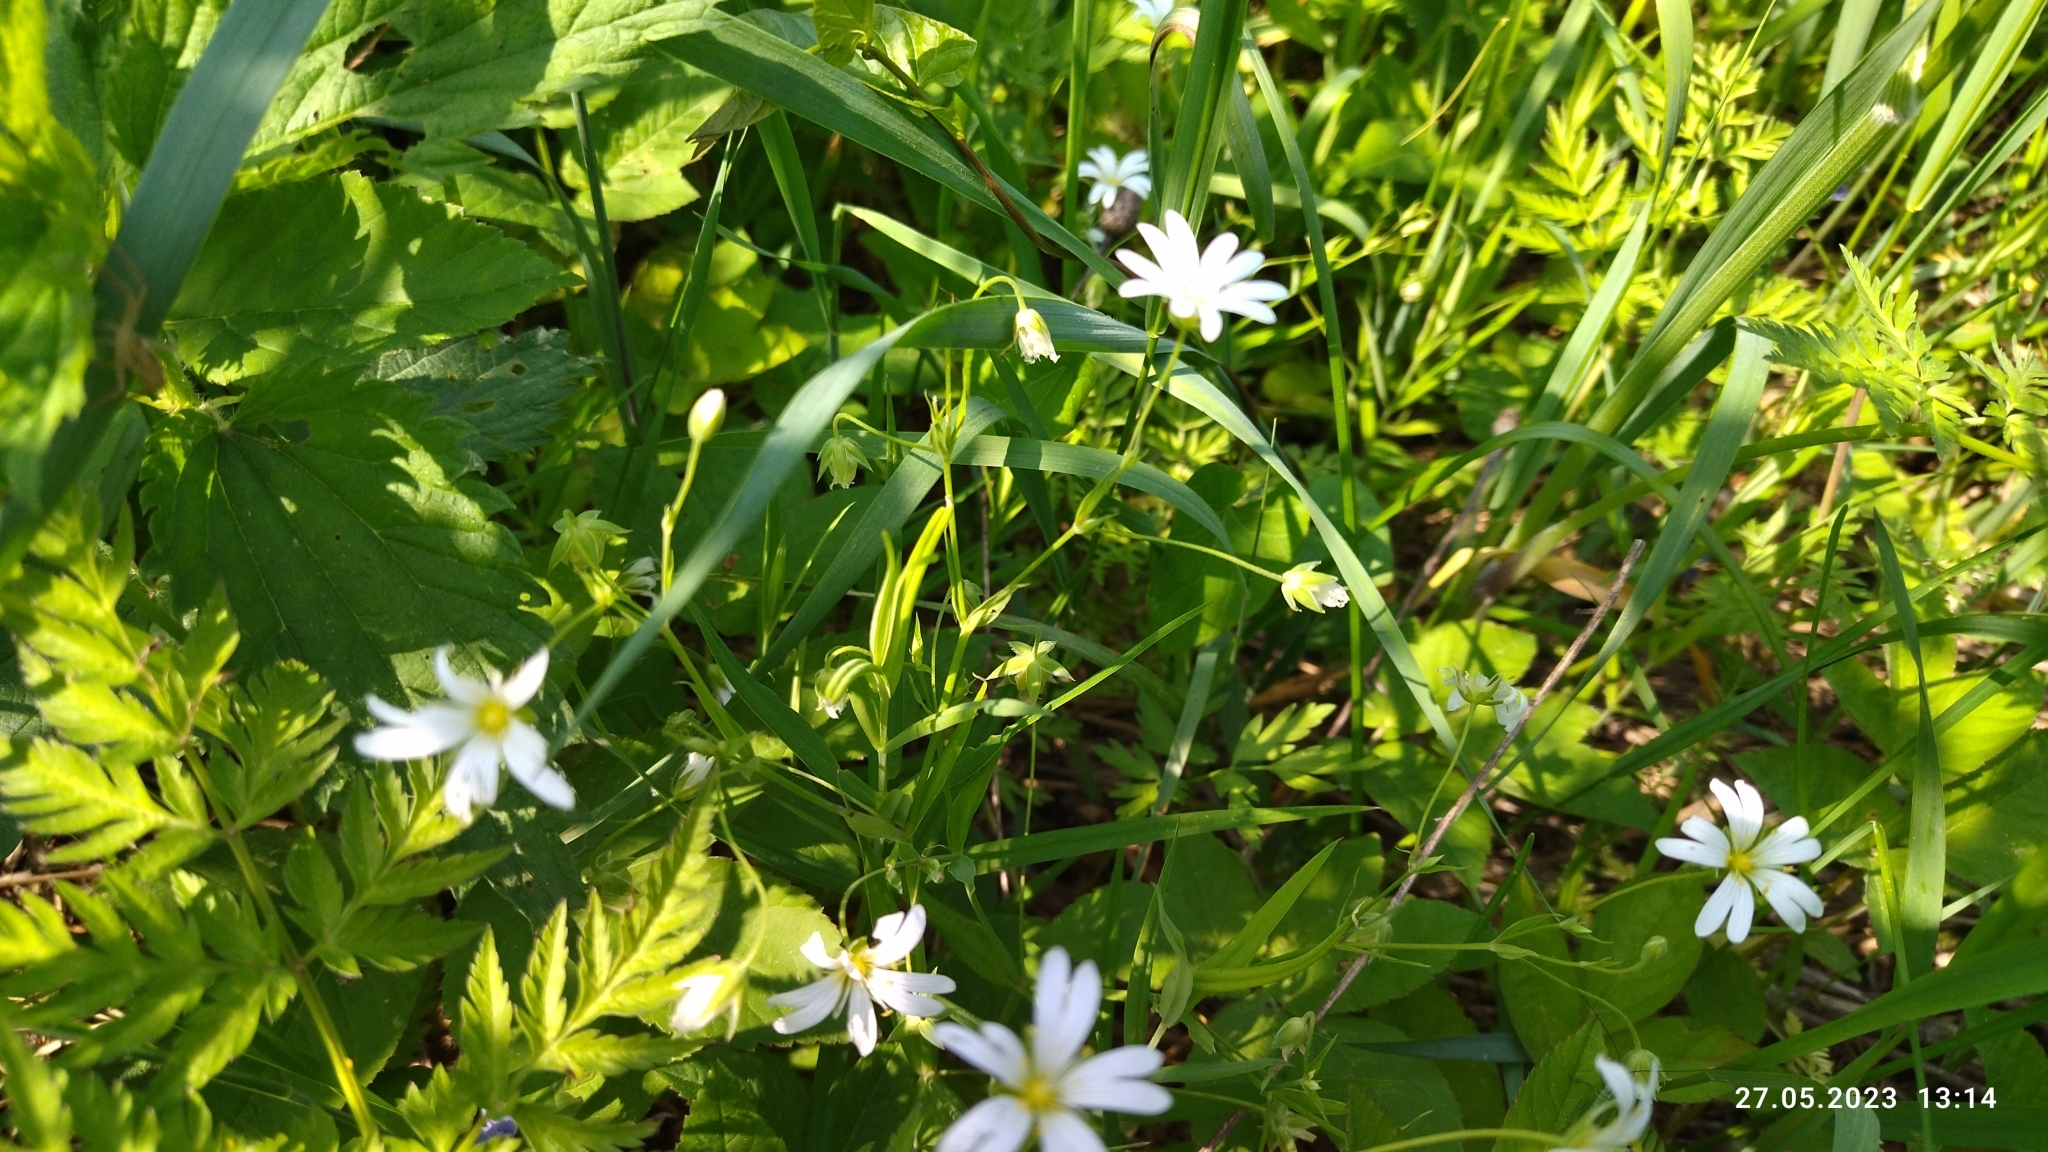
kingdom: Plantae
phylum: Tracheophyta
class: Magnoliopsida
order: Caryophyllales
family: Caryophyllaceae
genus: Rabelera
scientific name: Rabelera holostea
